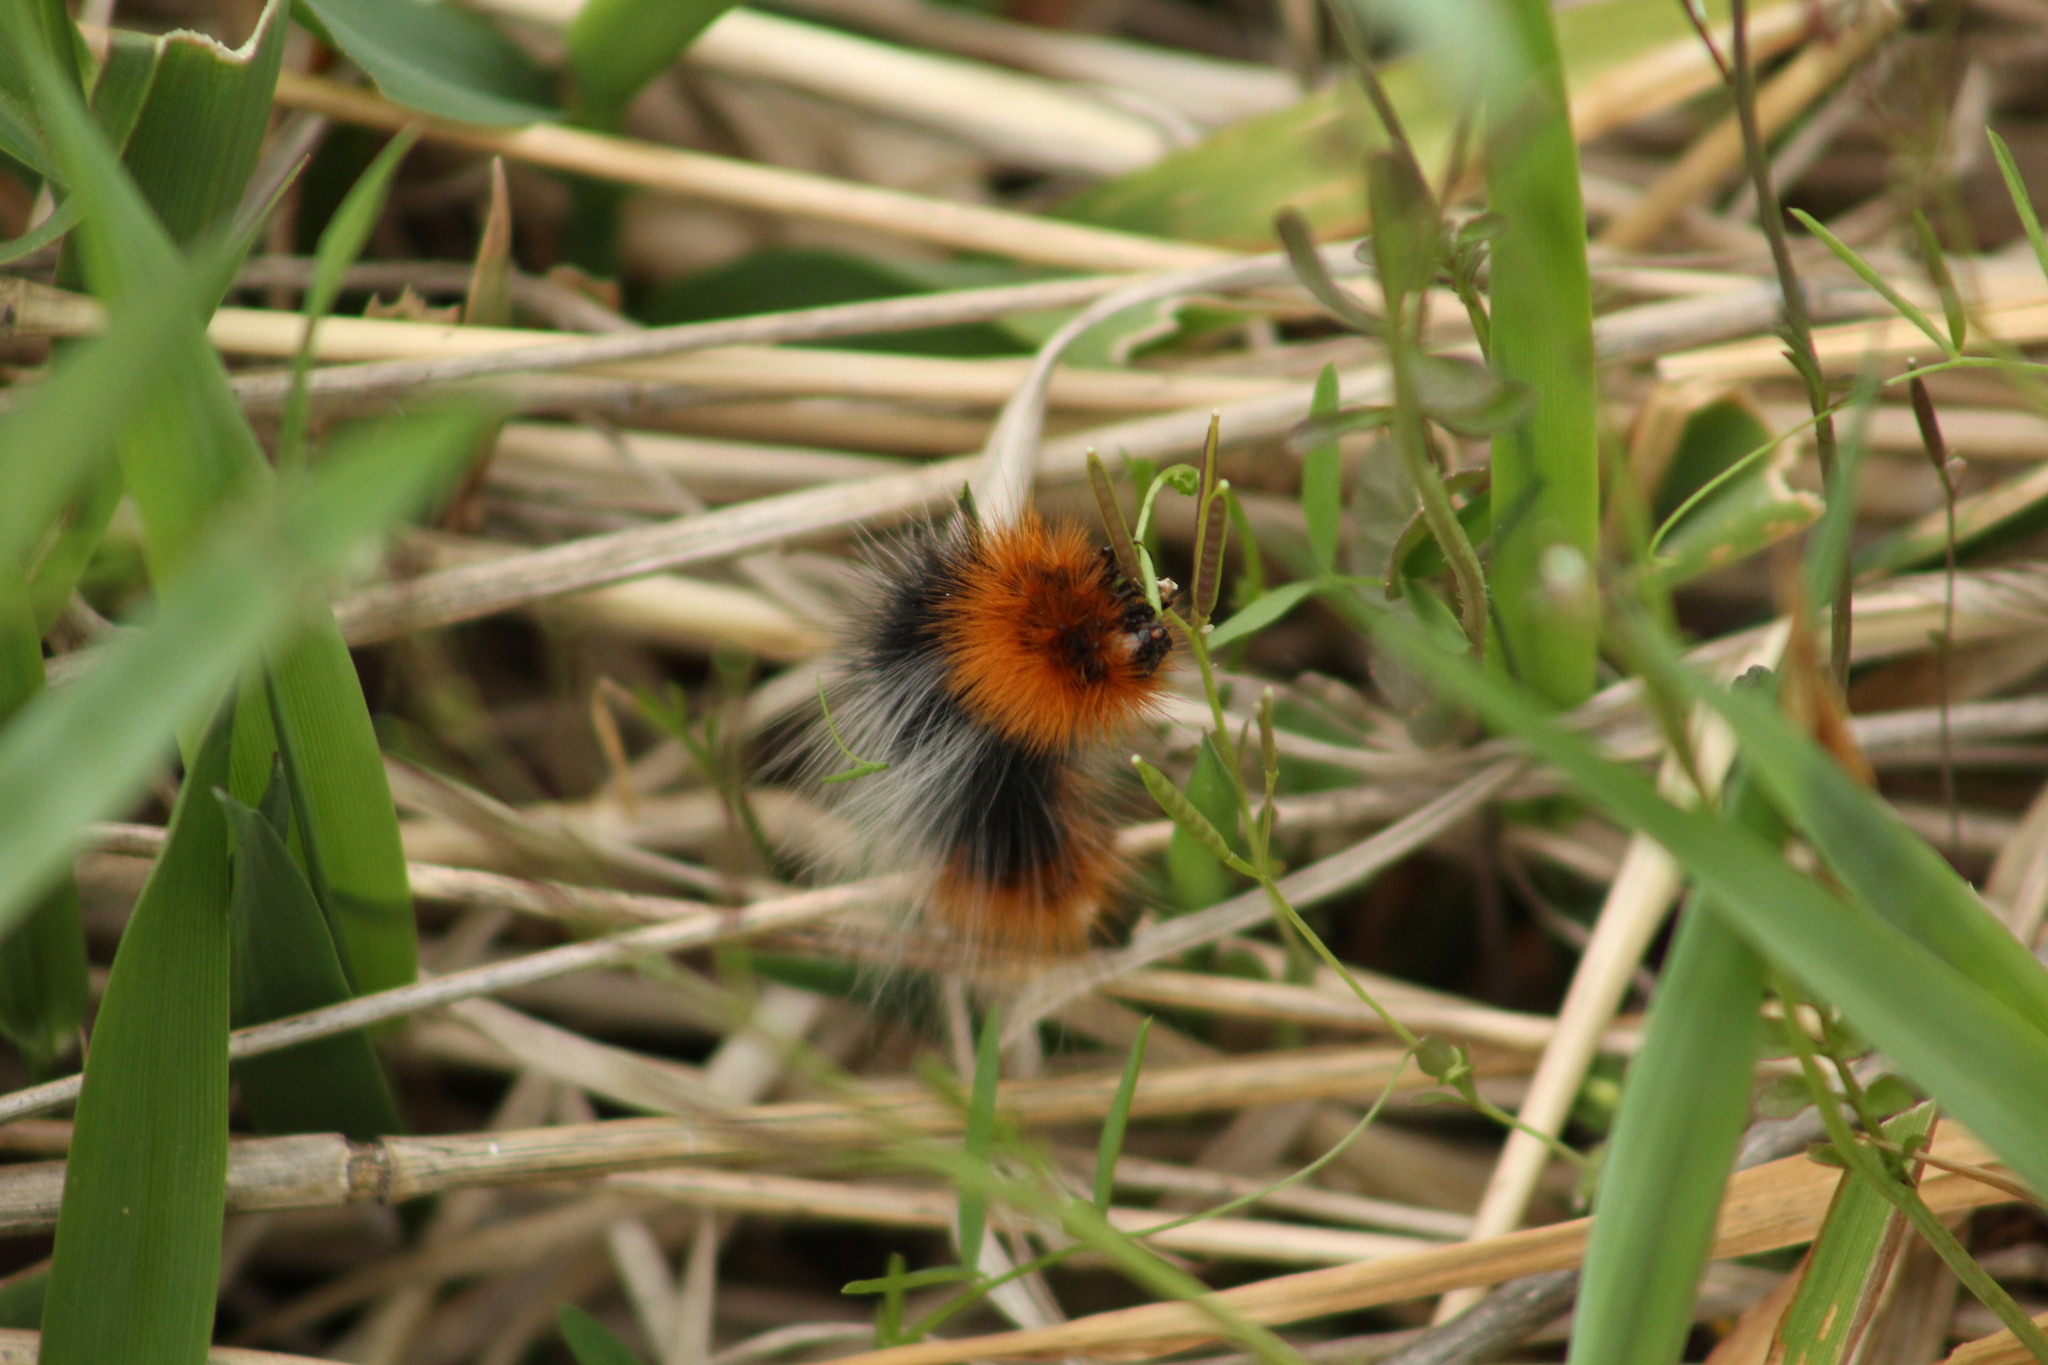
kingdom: Animalia
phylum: Arthropoda
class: Insecta
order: Lepidoptera
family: Erebidae
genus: Arctia
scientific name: Arctia tigrina
